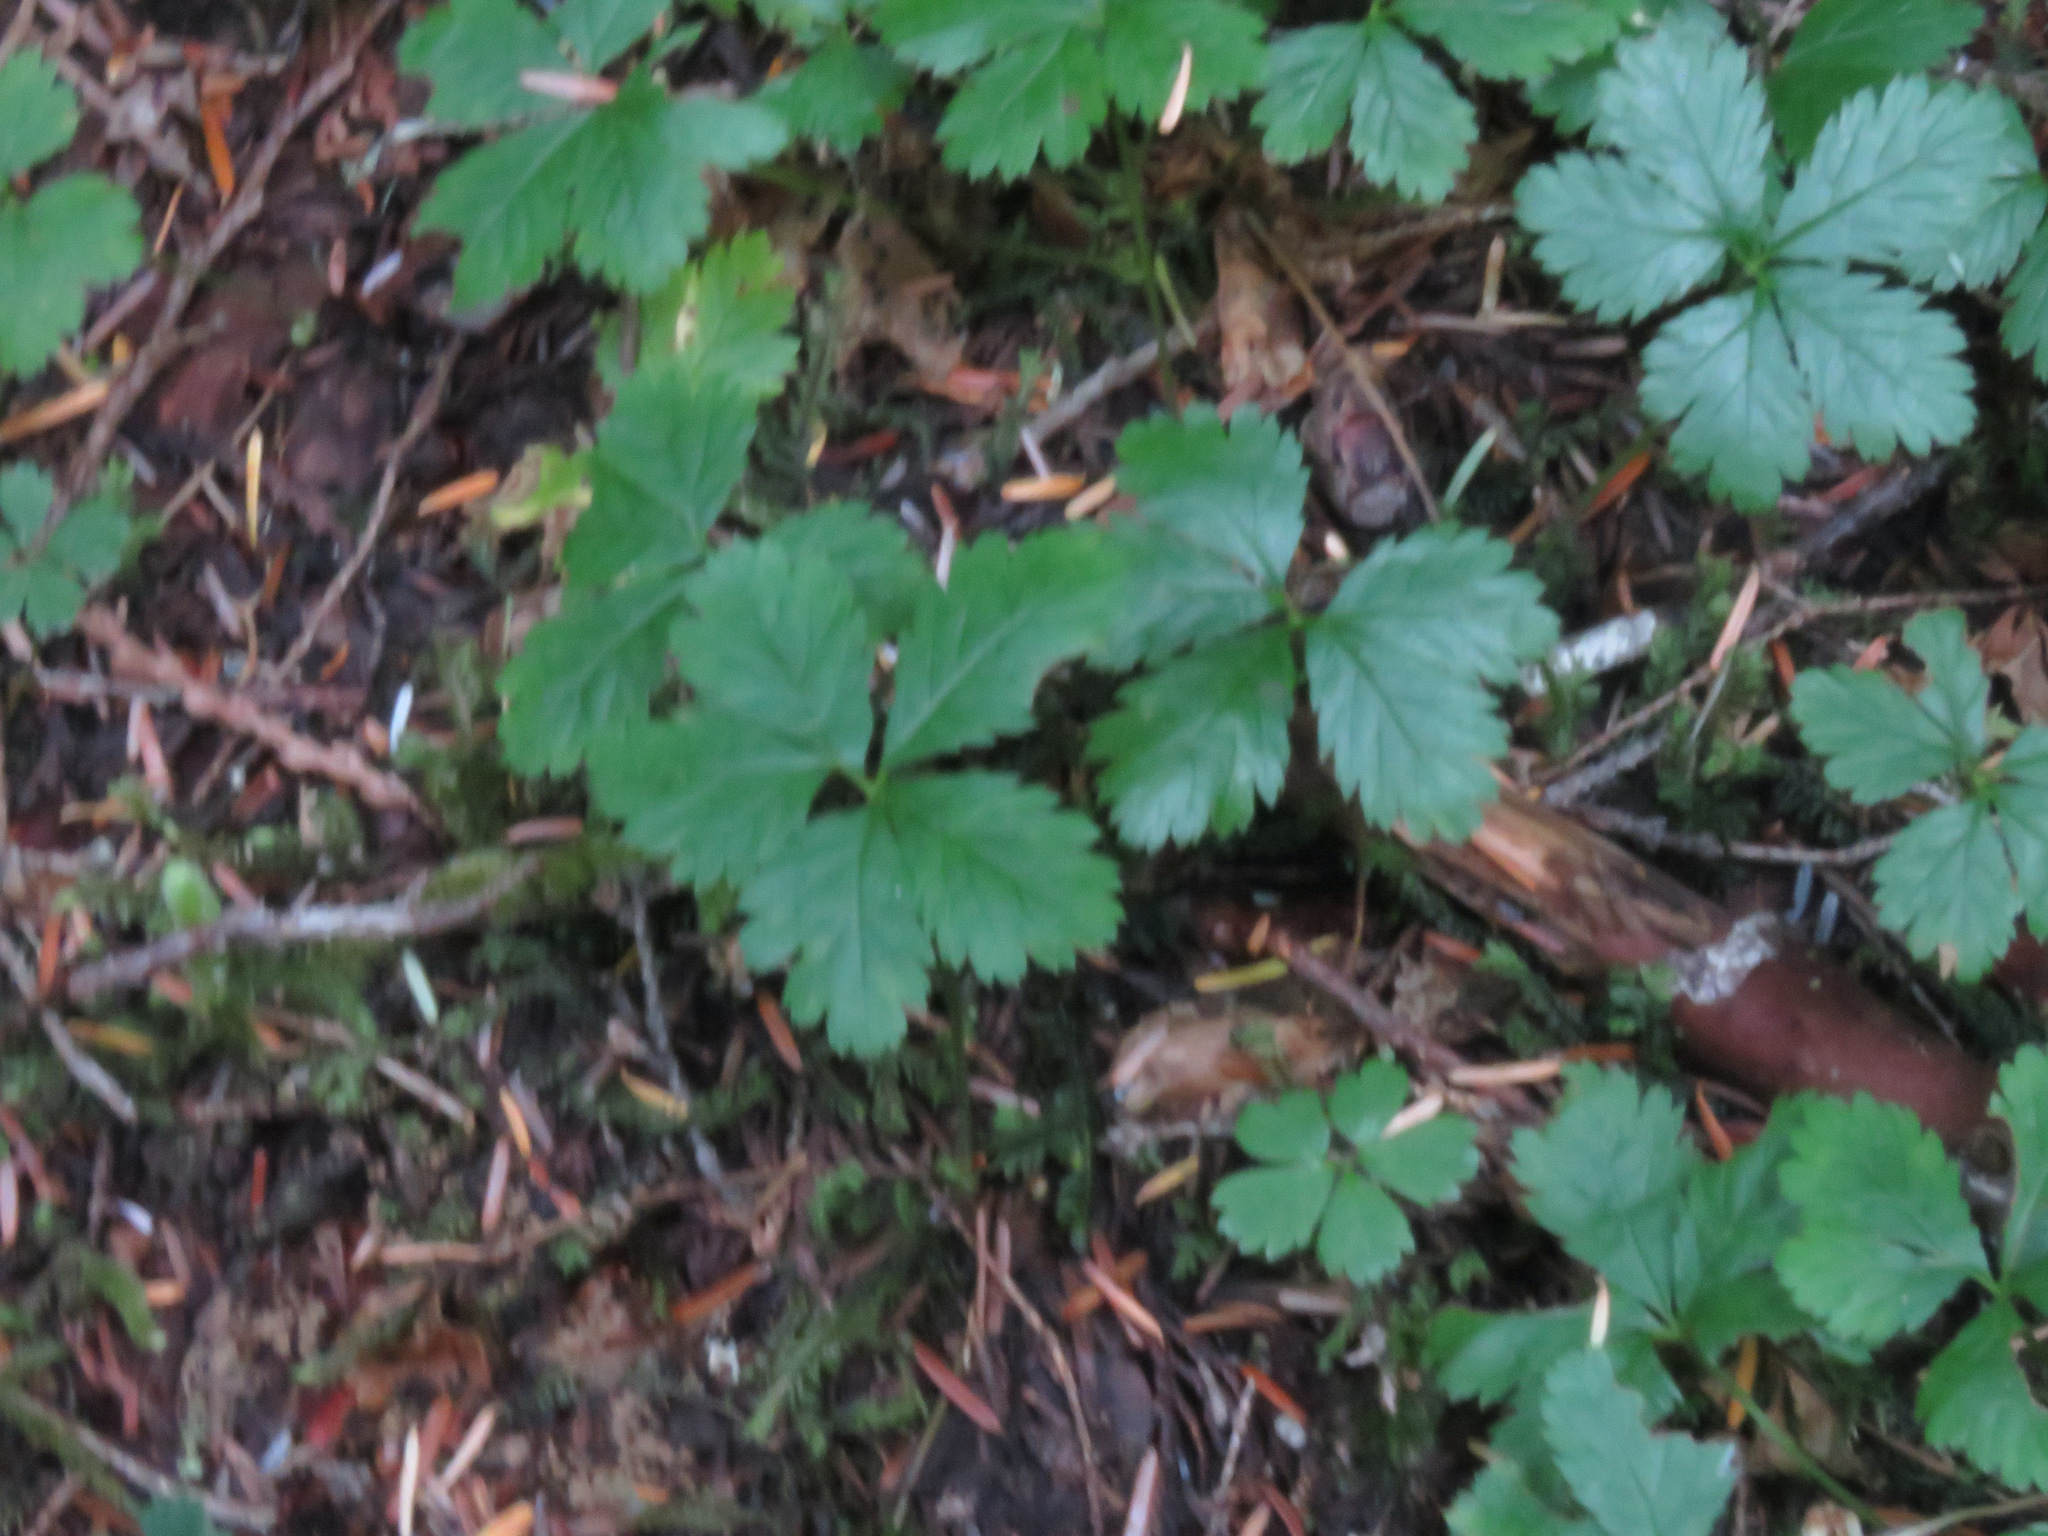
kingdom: Plantae
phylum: Tracheophyta
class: Magnoliopsida
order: Rosales
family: Rosaceae
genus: Rubus
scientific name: Rubus pedatus
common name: Creeping raspberry
